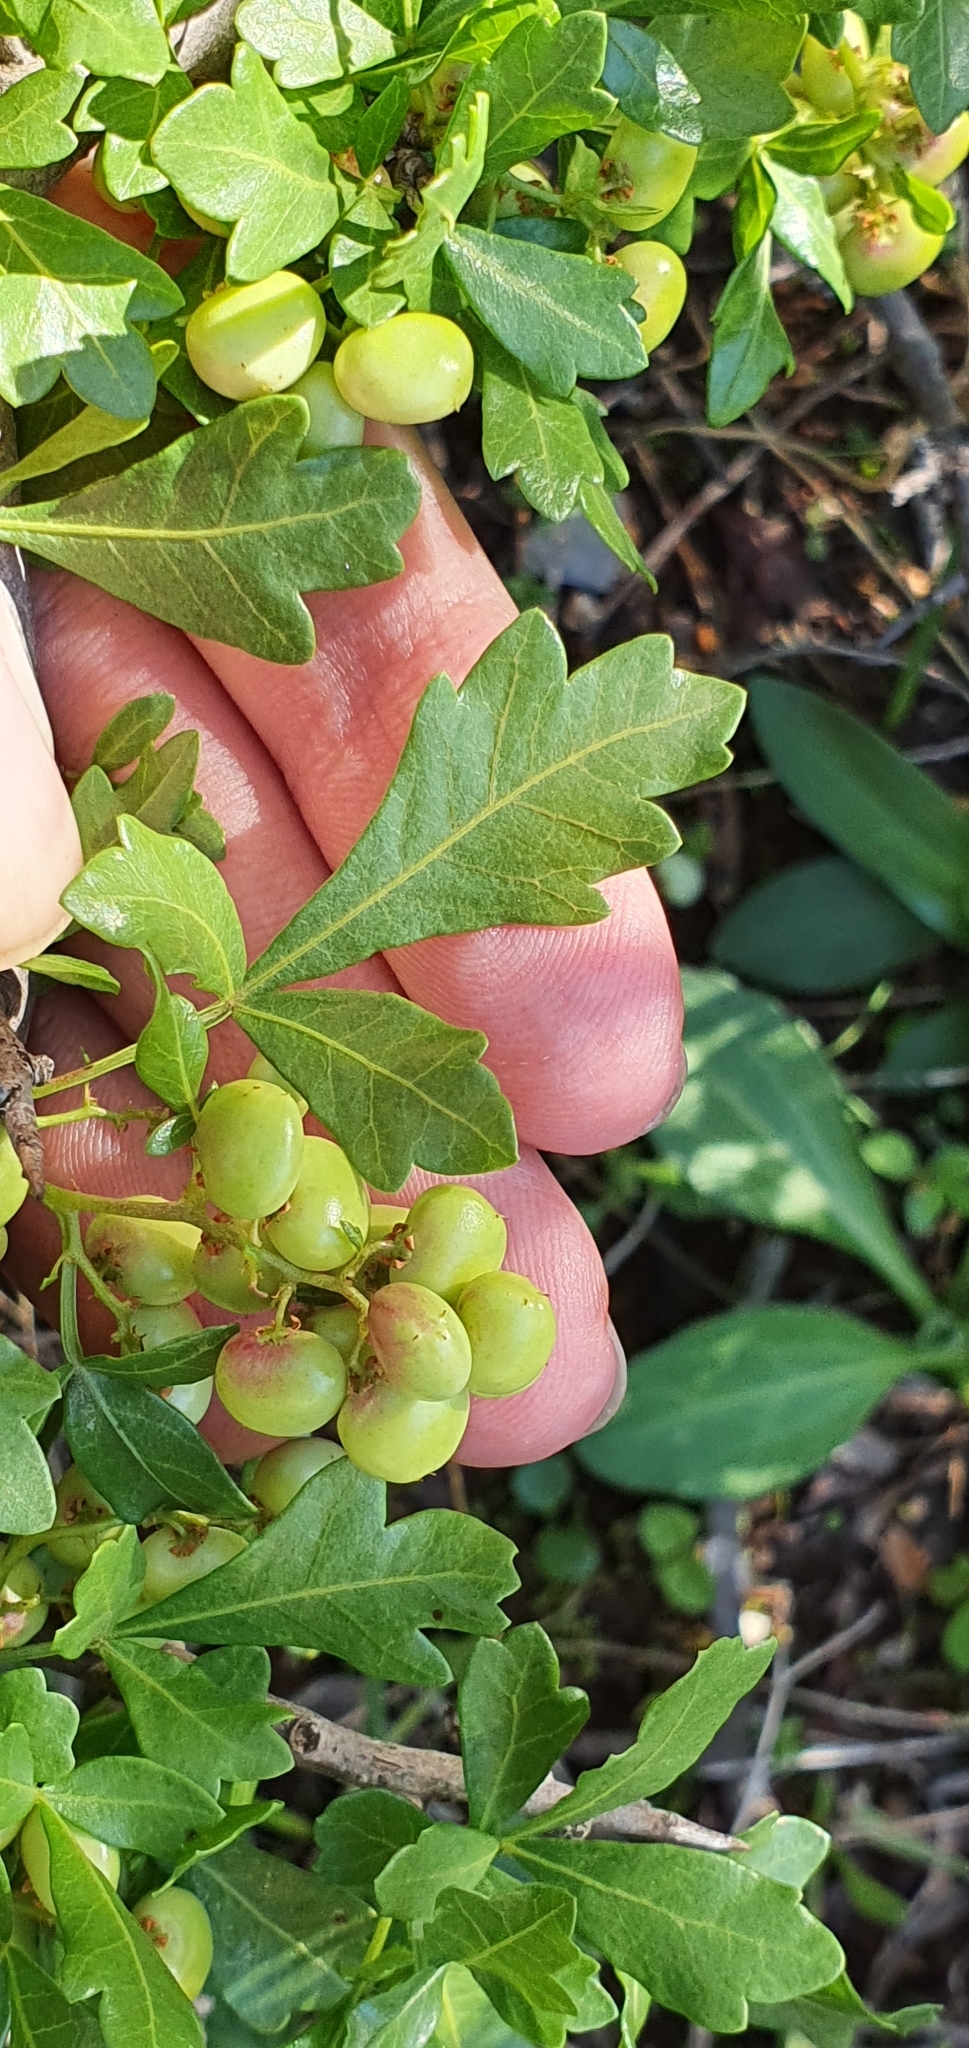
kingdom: Plantae
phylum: Tracheophyta
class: Magnoliopsida
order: Sapindales
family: Anacardiaceae
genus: Searsia
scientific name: Searsia tripartita
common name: Tripartite sumac
